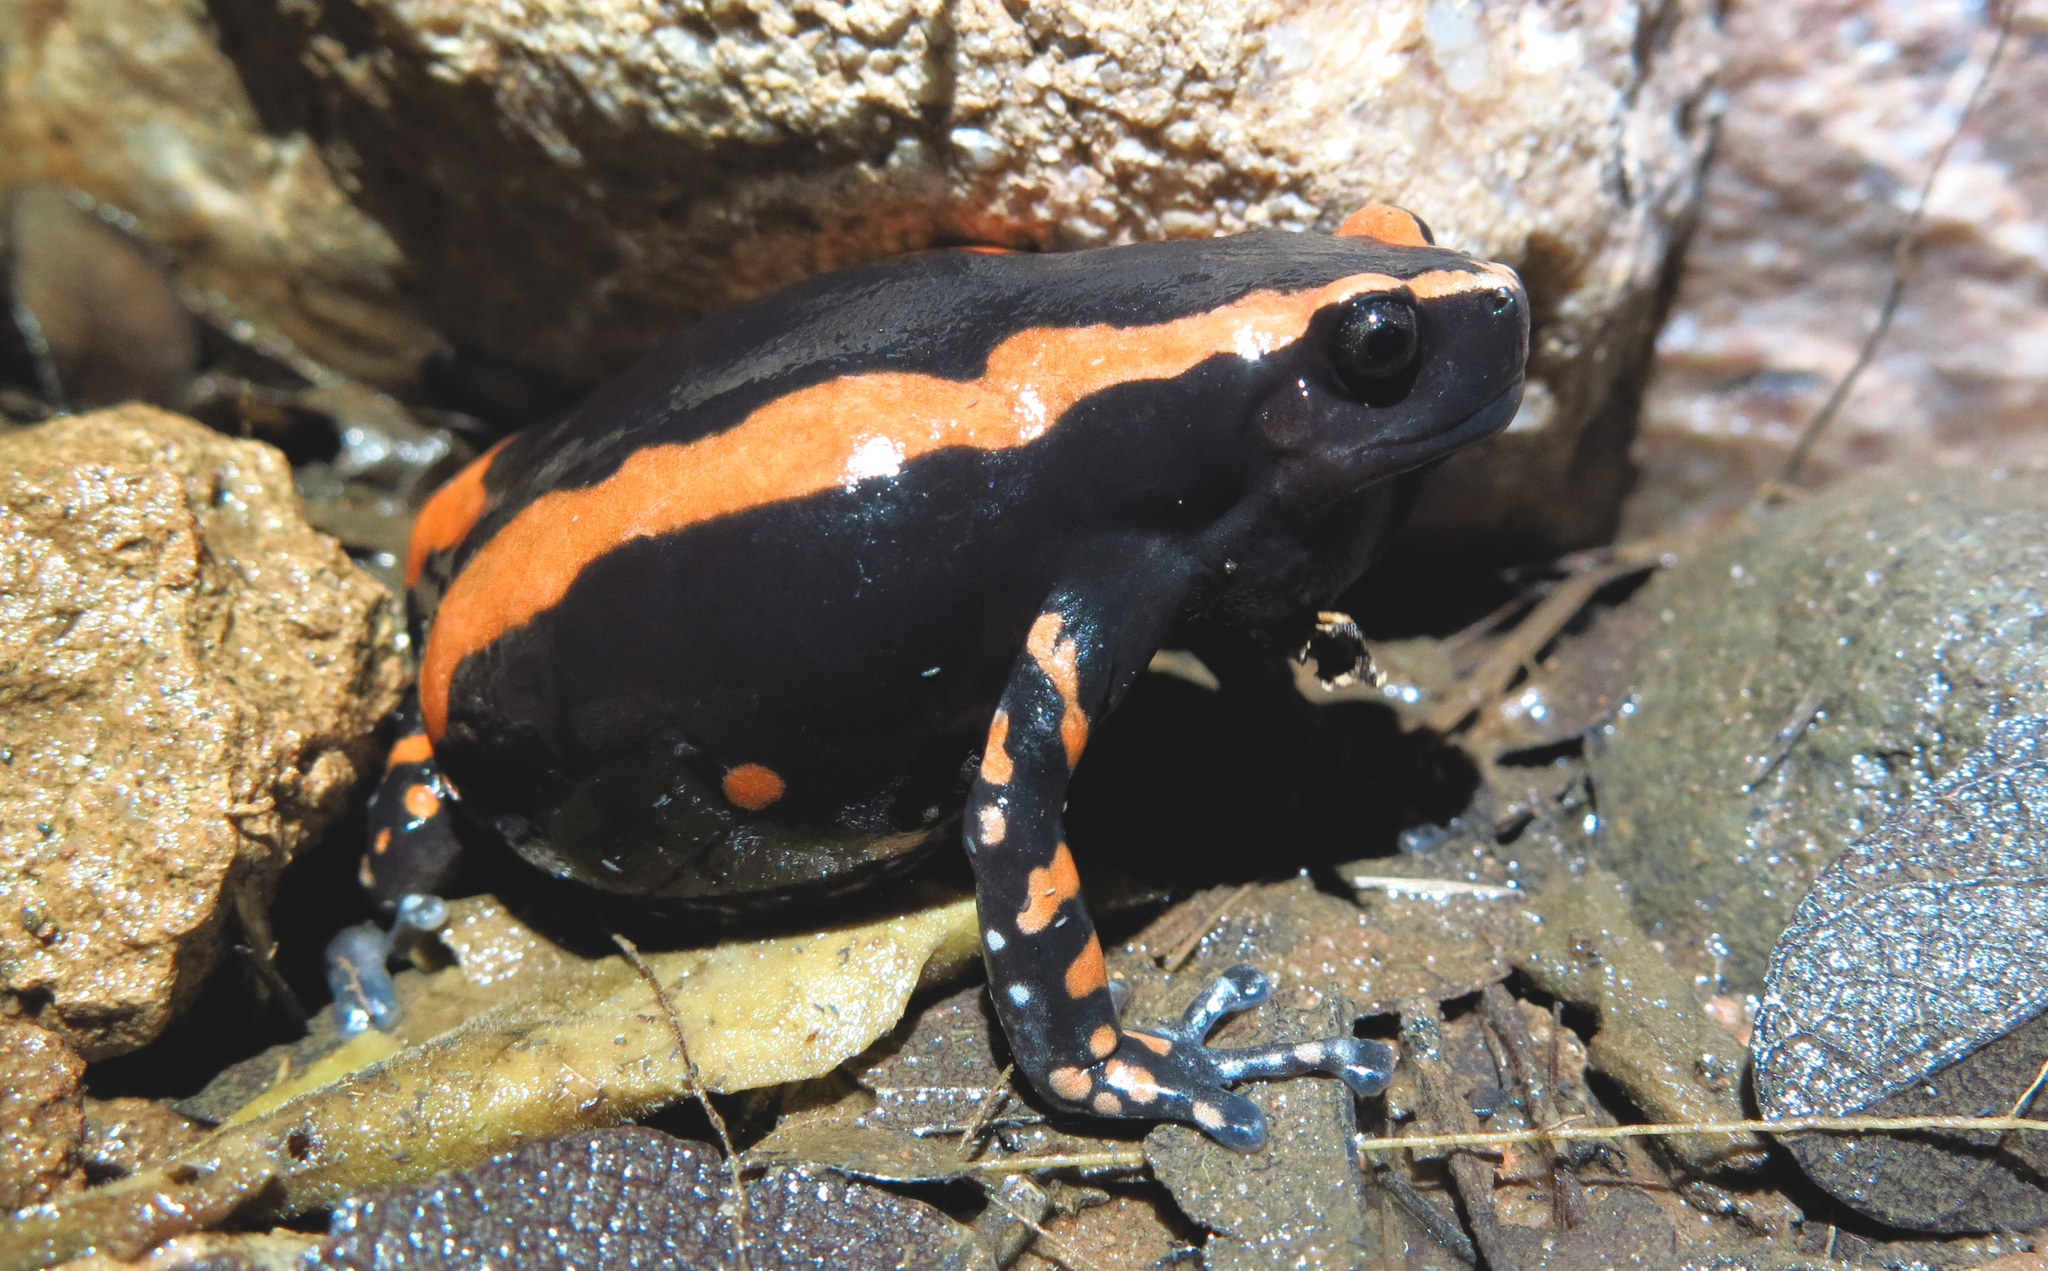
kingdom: Animalia
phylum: Chordata
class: Amphibia
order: Anura
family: Microhylidae
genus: Phrynomantis
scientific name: Phrynomantis bifasciatus
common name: Banded rubber frog
